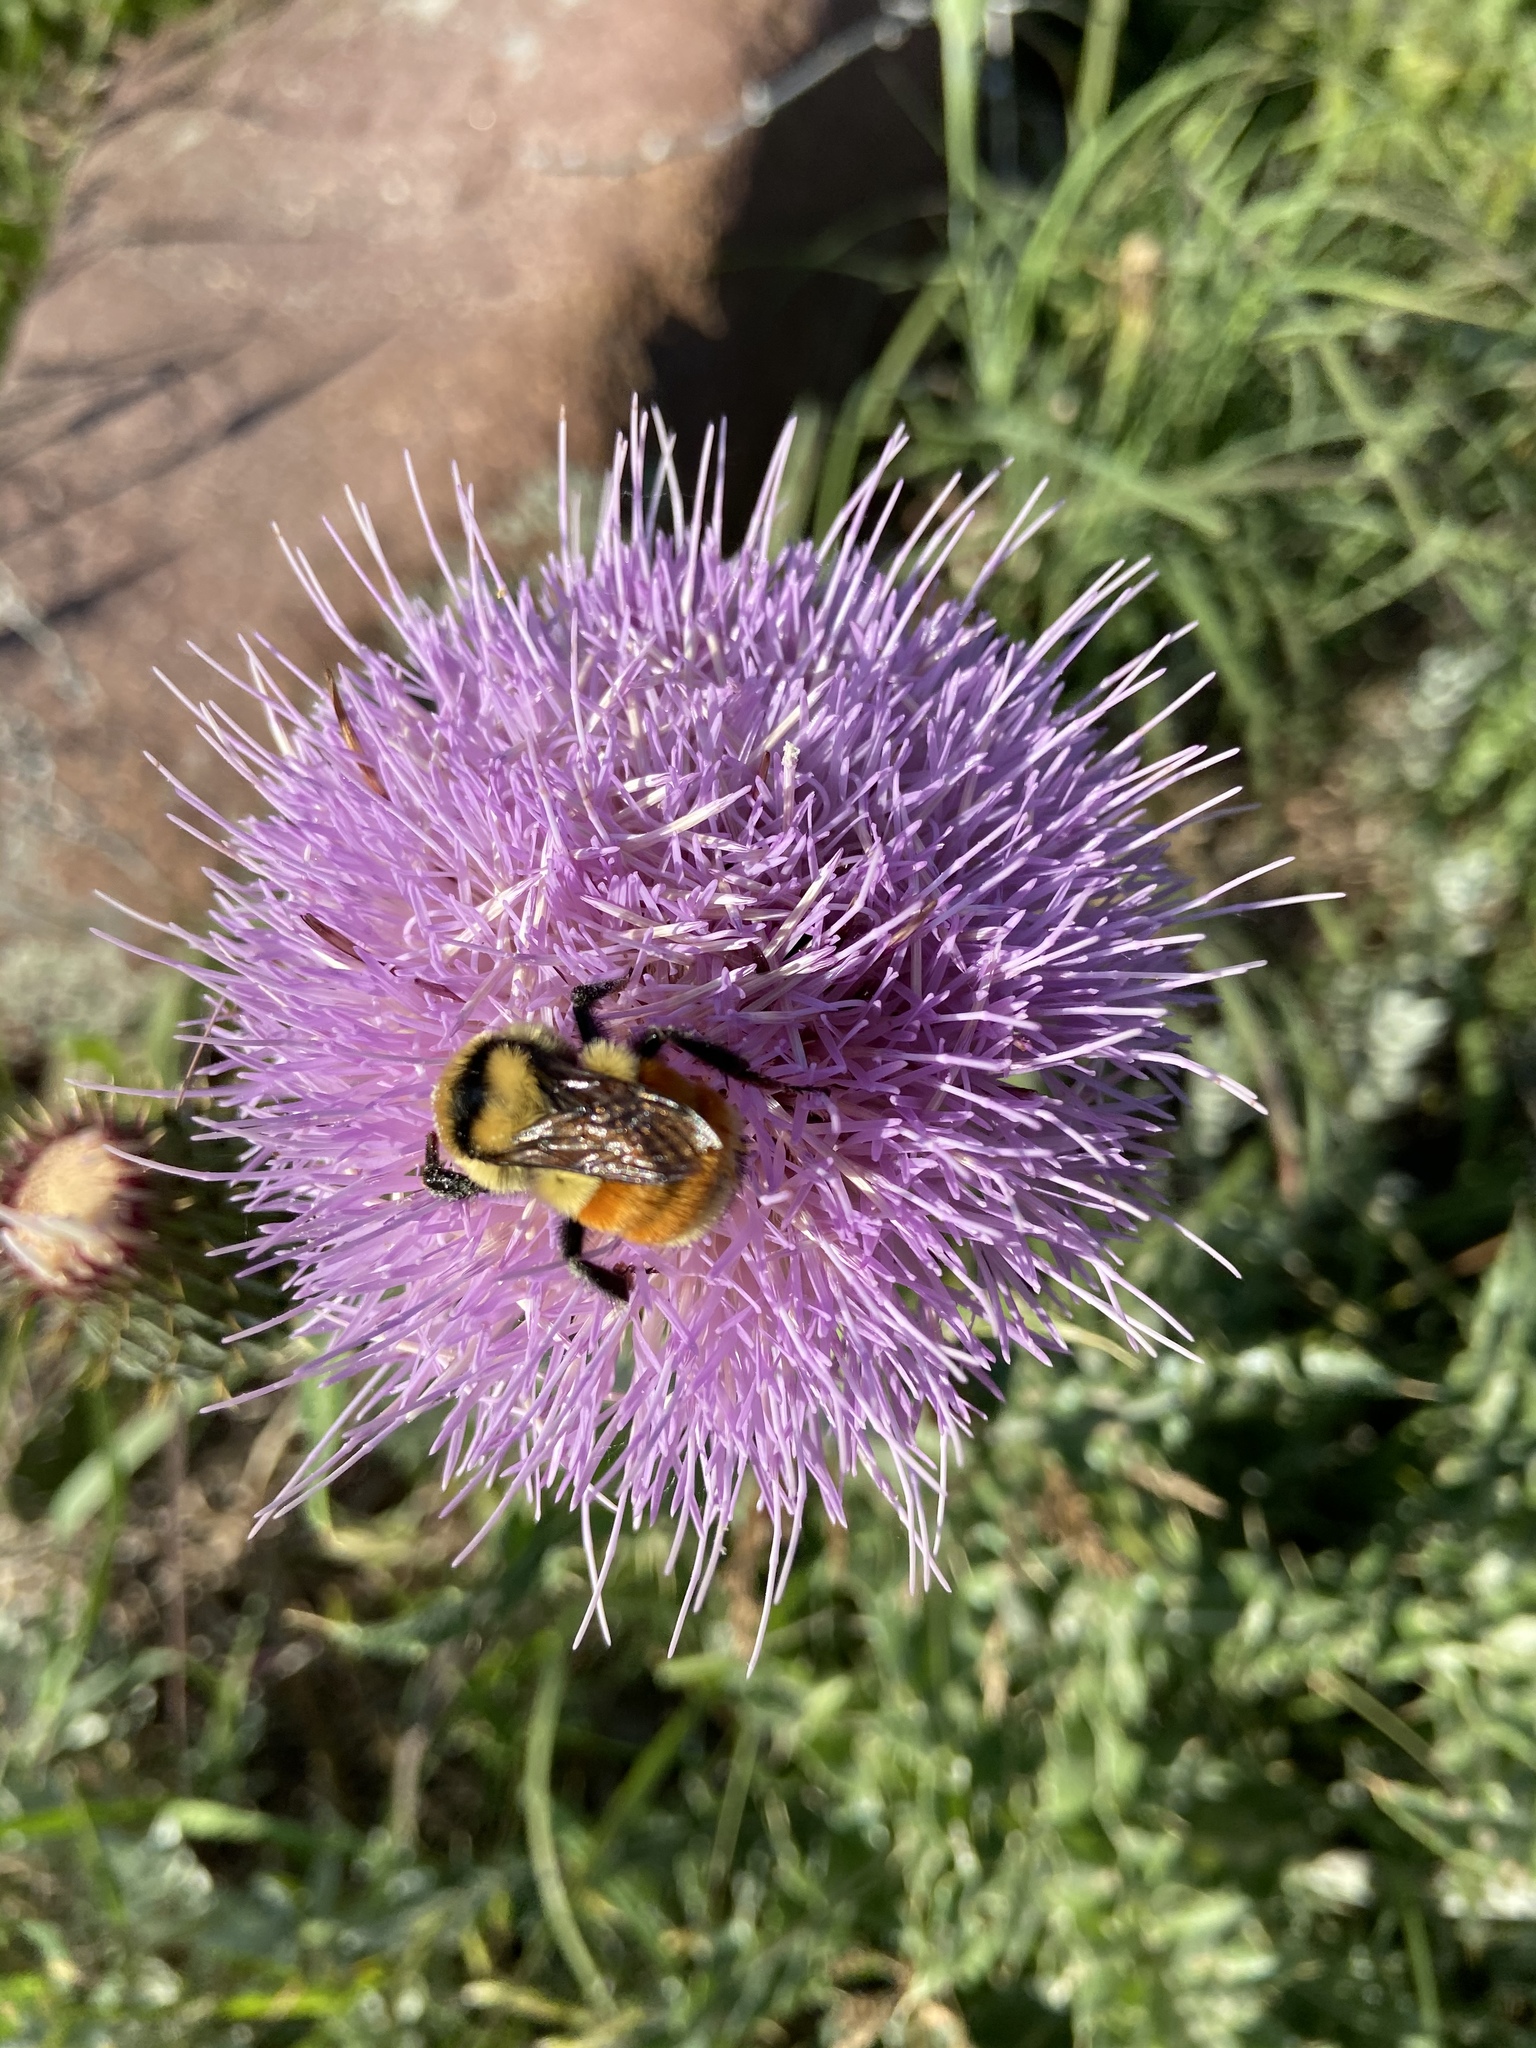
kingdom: Animalia
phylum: Arthropoda
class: Insecta
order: Hymenoptera
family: Apidae
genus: Bombus
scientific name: Bombus huntii
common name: Hunt bumble bee
